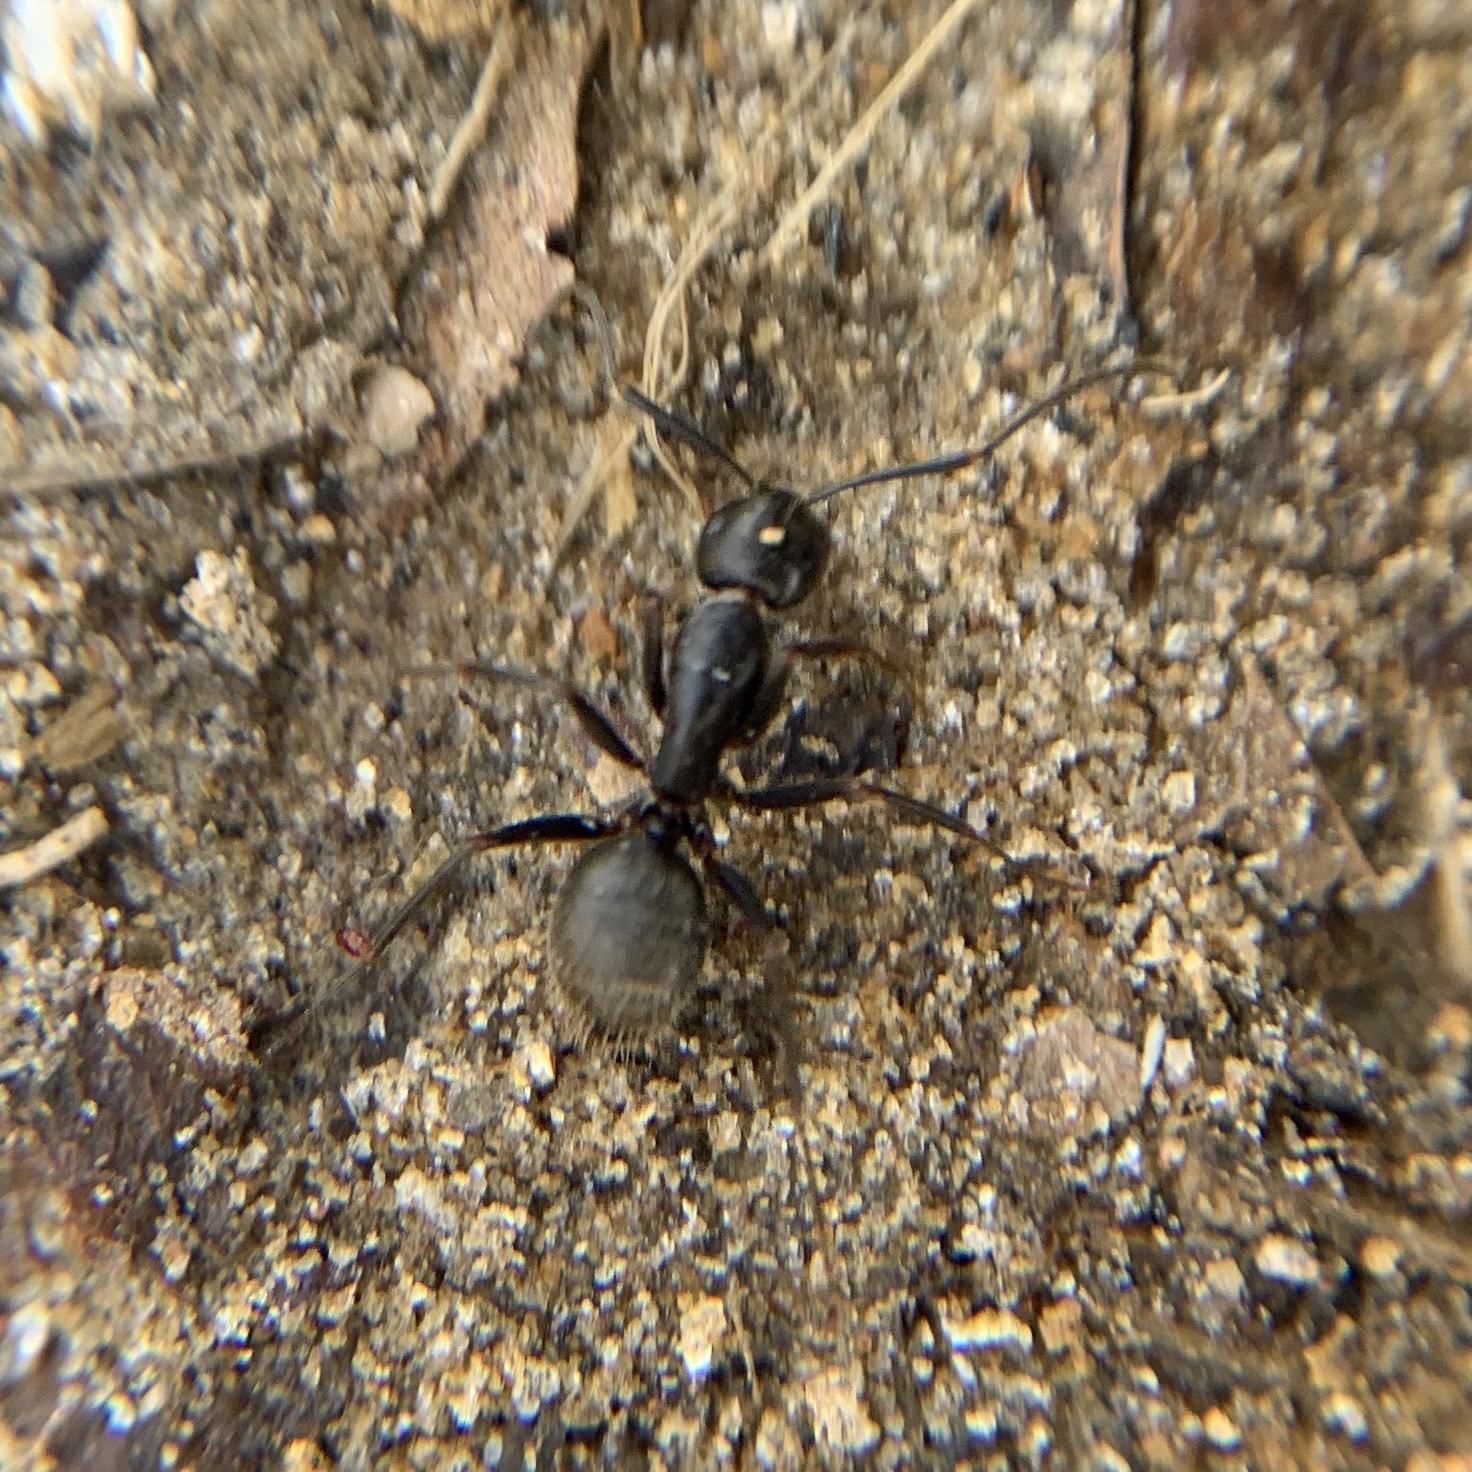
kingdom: Animalia
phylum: Arthropoda
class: Insecta
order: Hymenoptera
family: Formicidae
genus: Camponotus
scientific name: Camponotus pennsylvanicus
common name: Black carpenter ant
